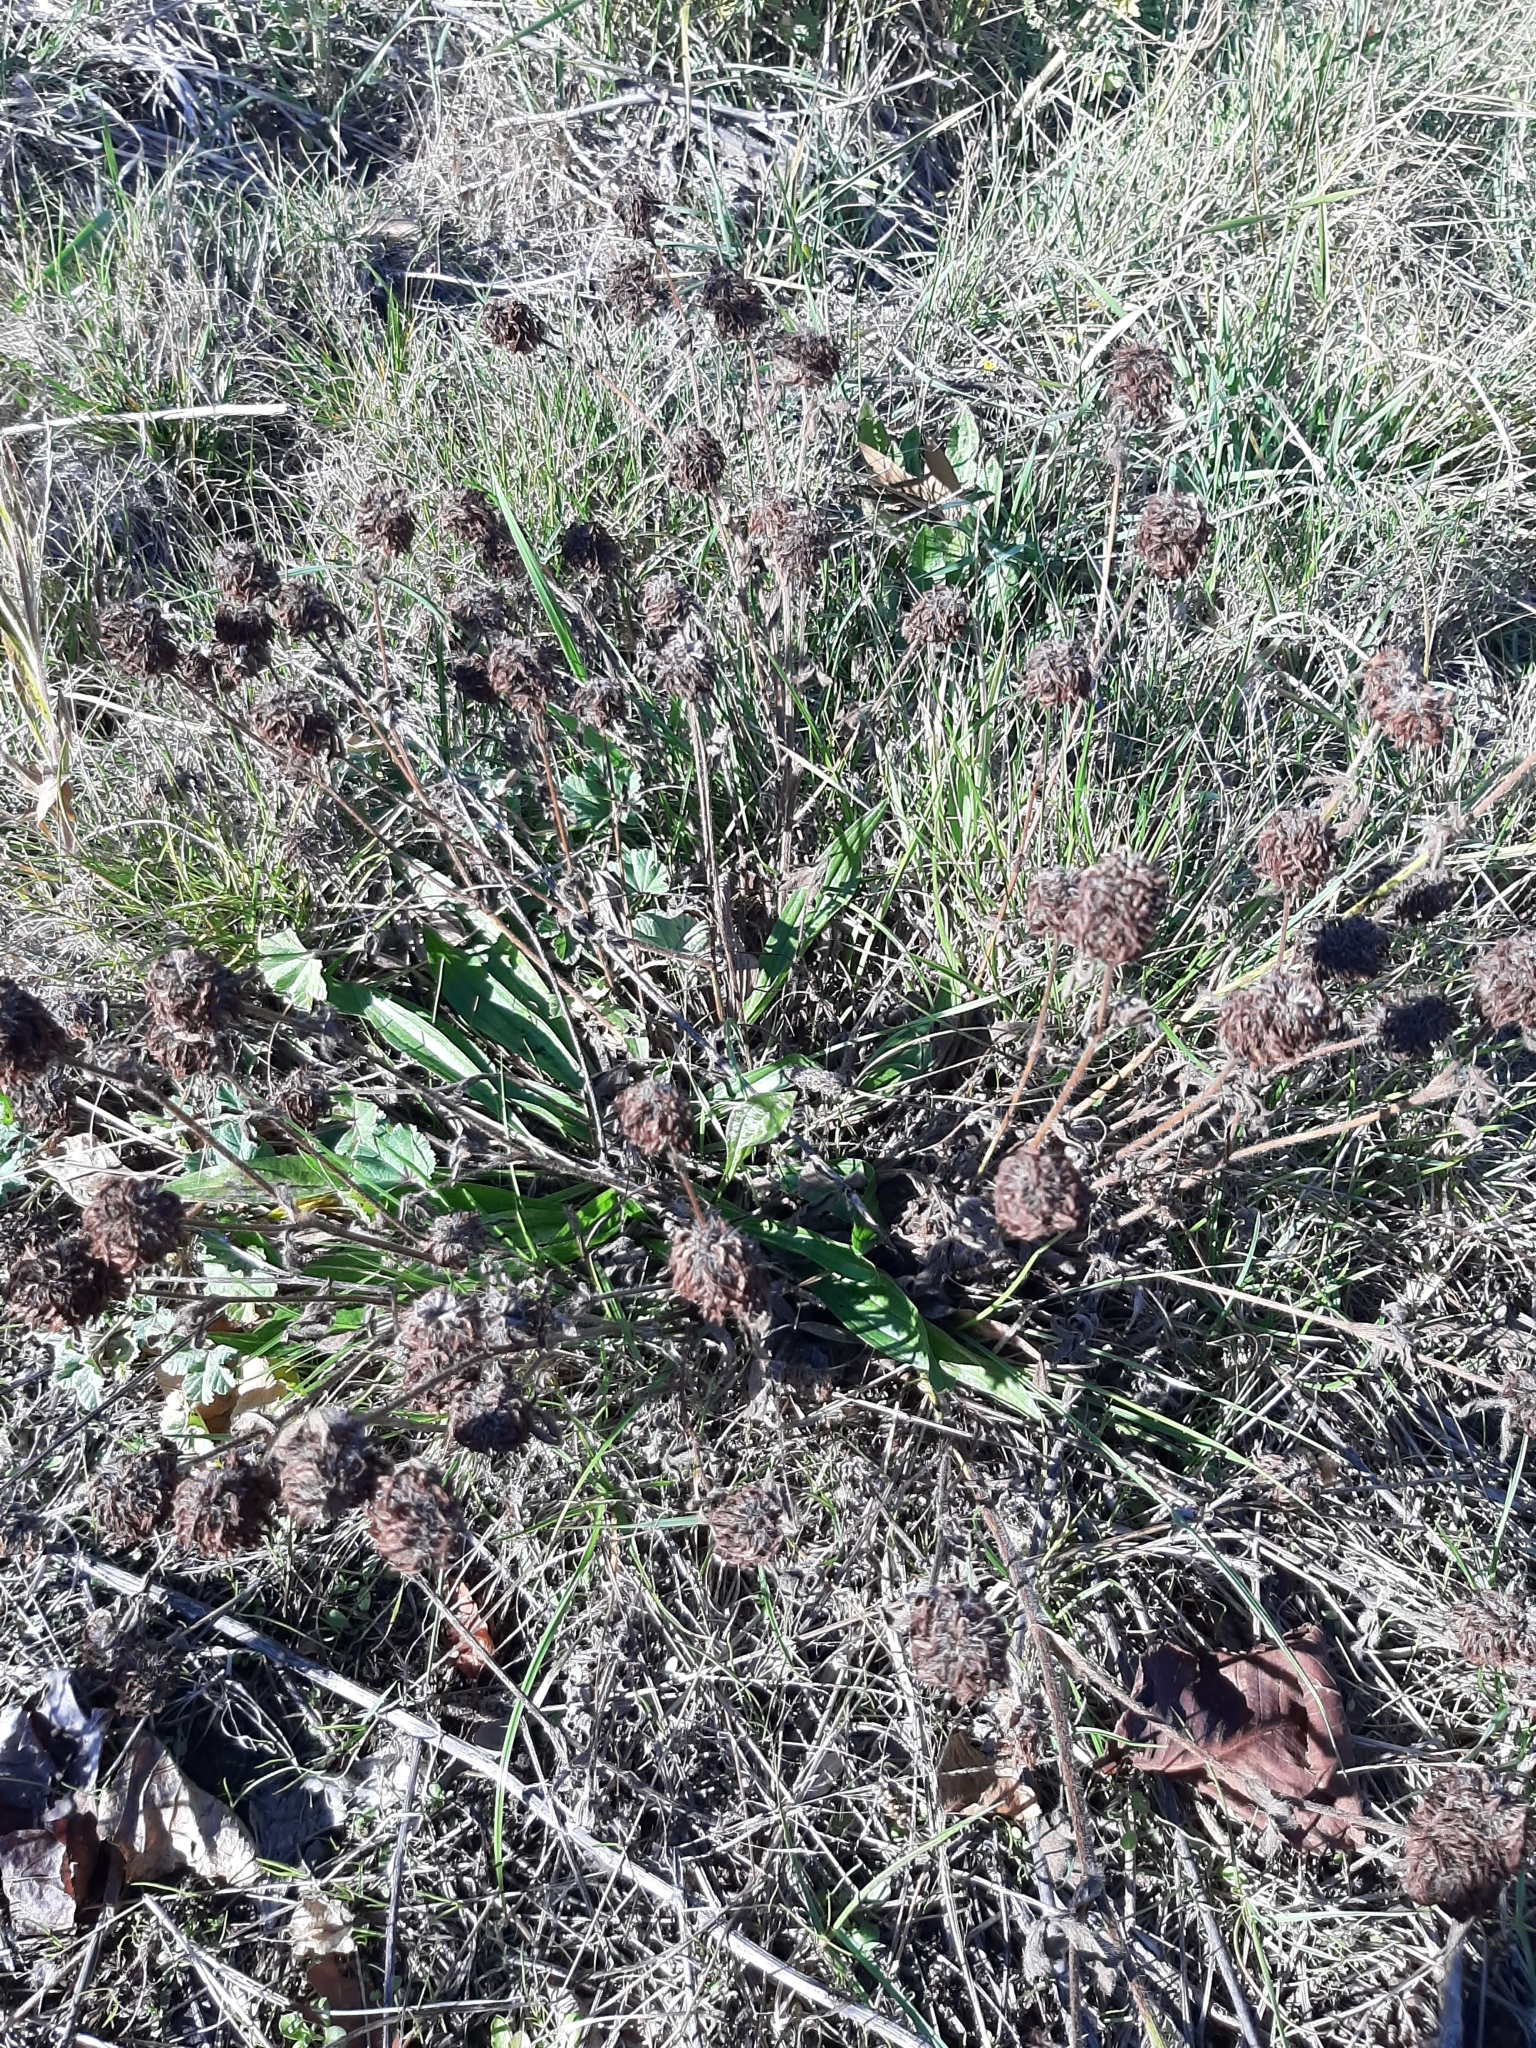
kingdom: Plantae
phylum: Tracheophyta
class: Magnoliopsida
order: Fabales
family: Fabaceae
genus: Trifolium
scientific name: Trifolium pratense
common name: Red clover
